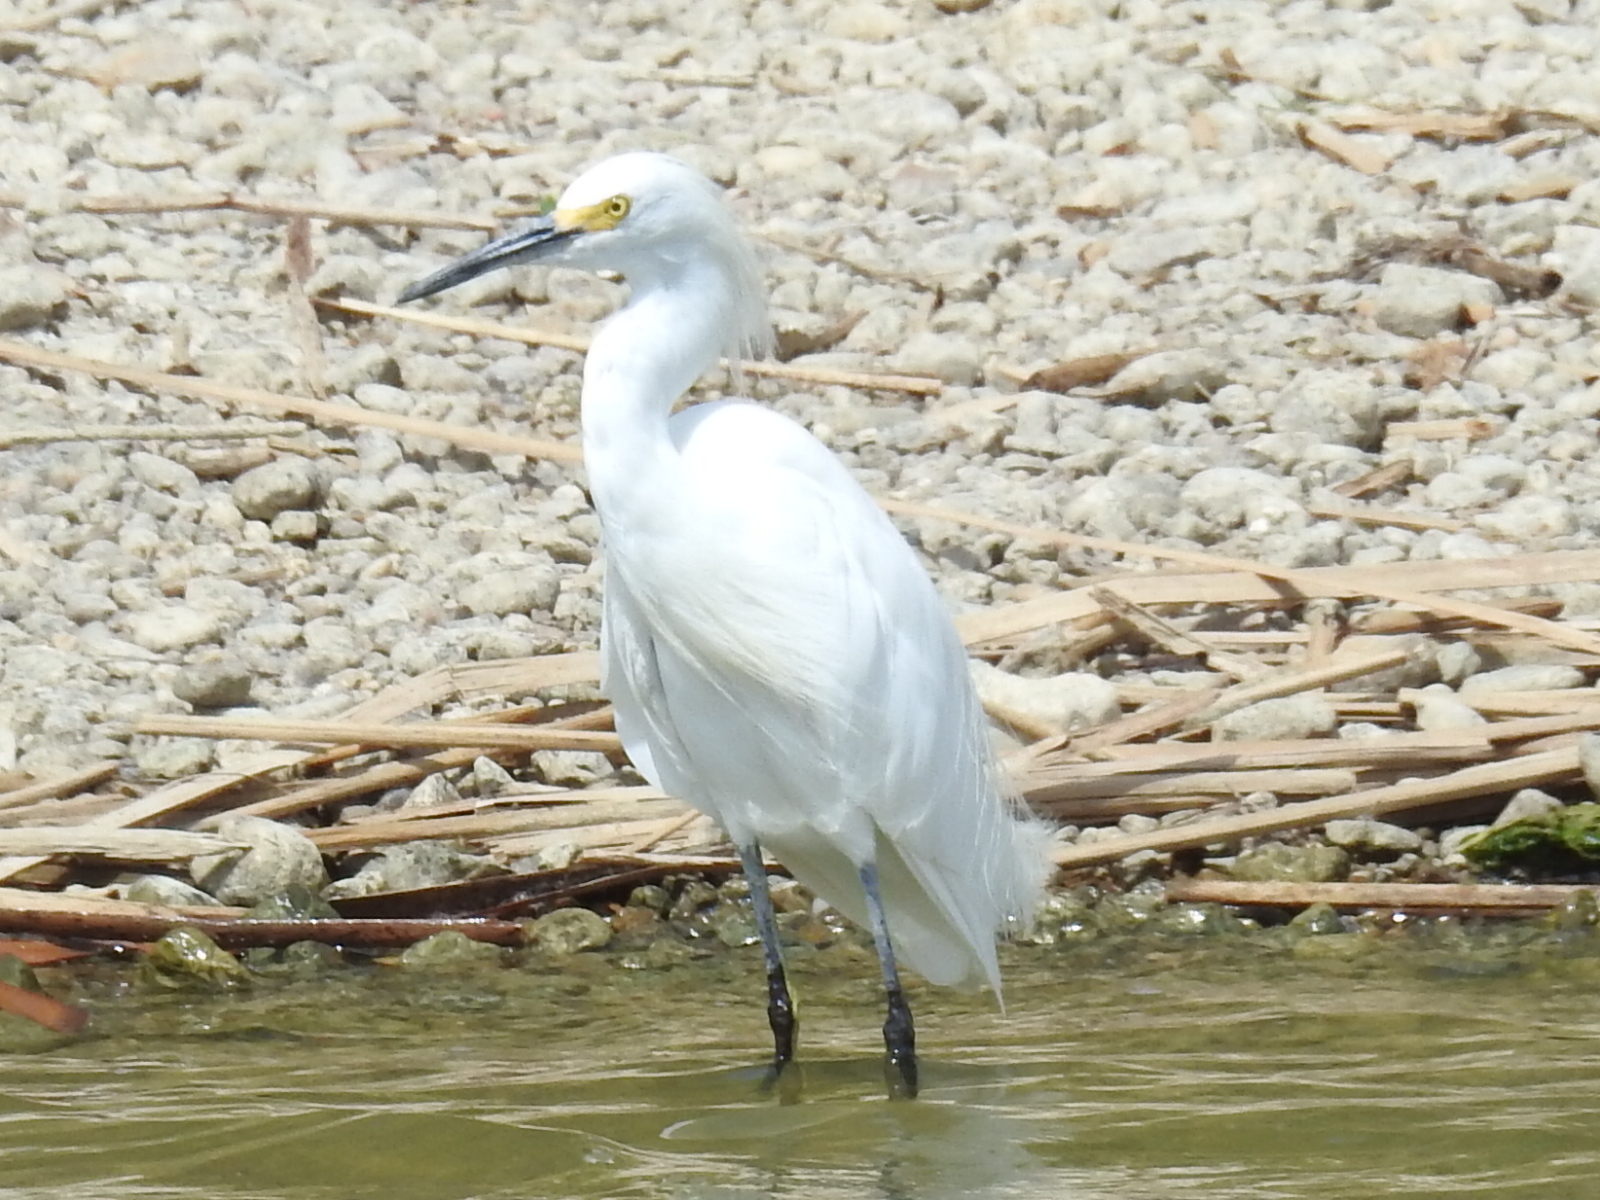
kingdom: Animalia
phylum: Chordata
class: Aves
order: Pelecaniformes
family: Ardeidae
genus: Egretta
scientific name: Egretta thula
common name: Snowy egret
